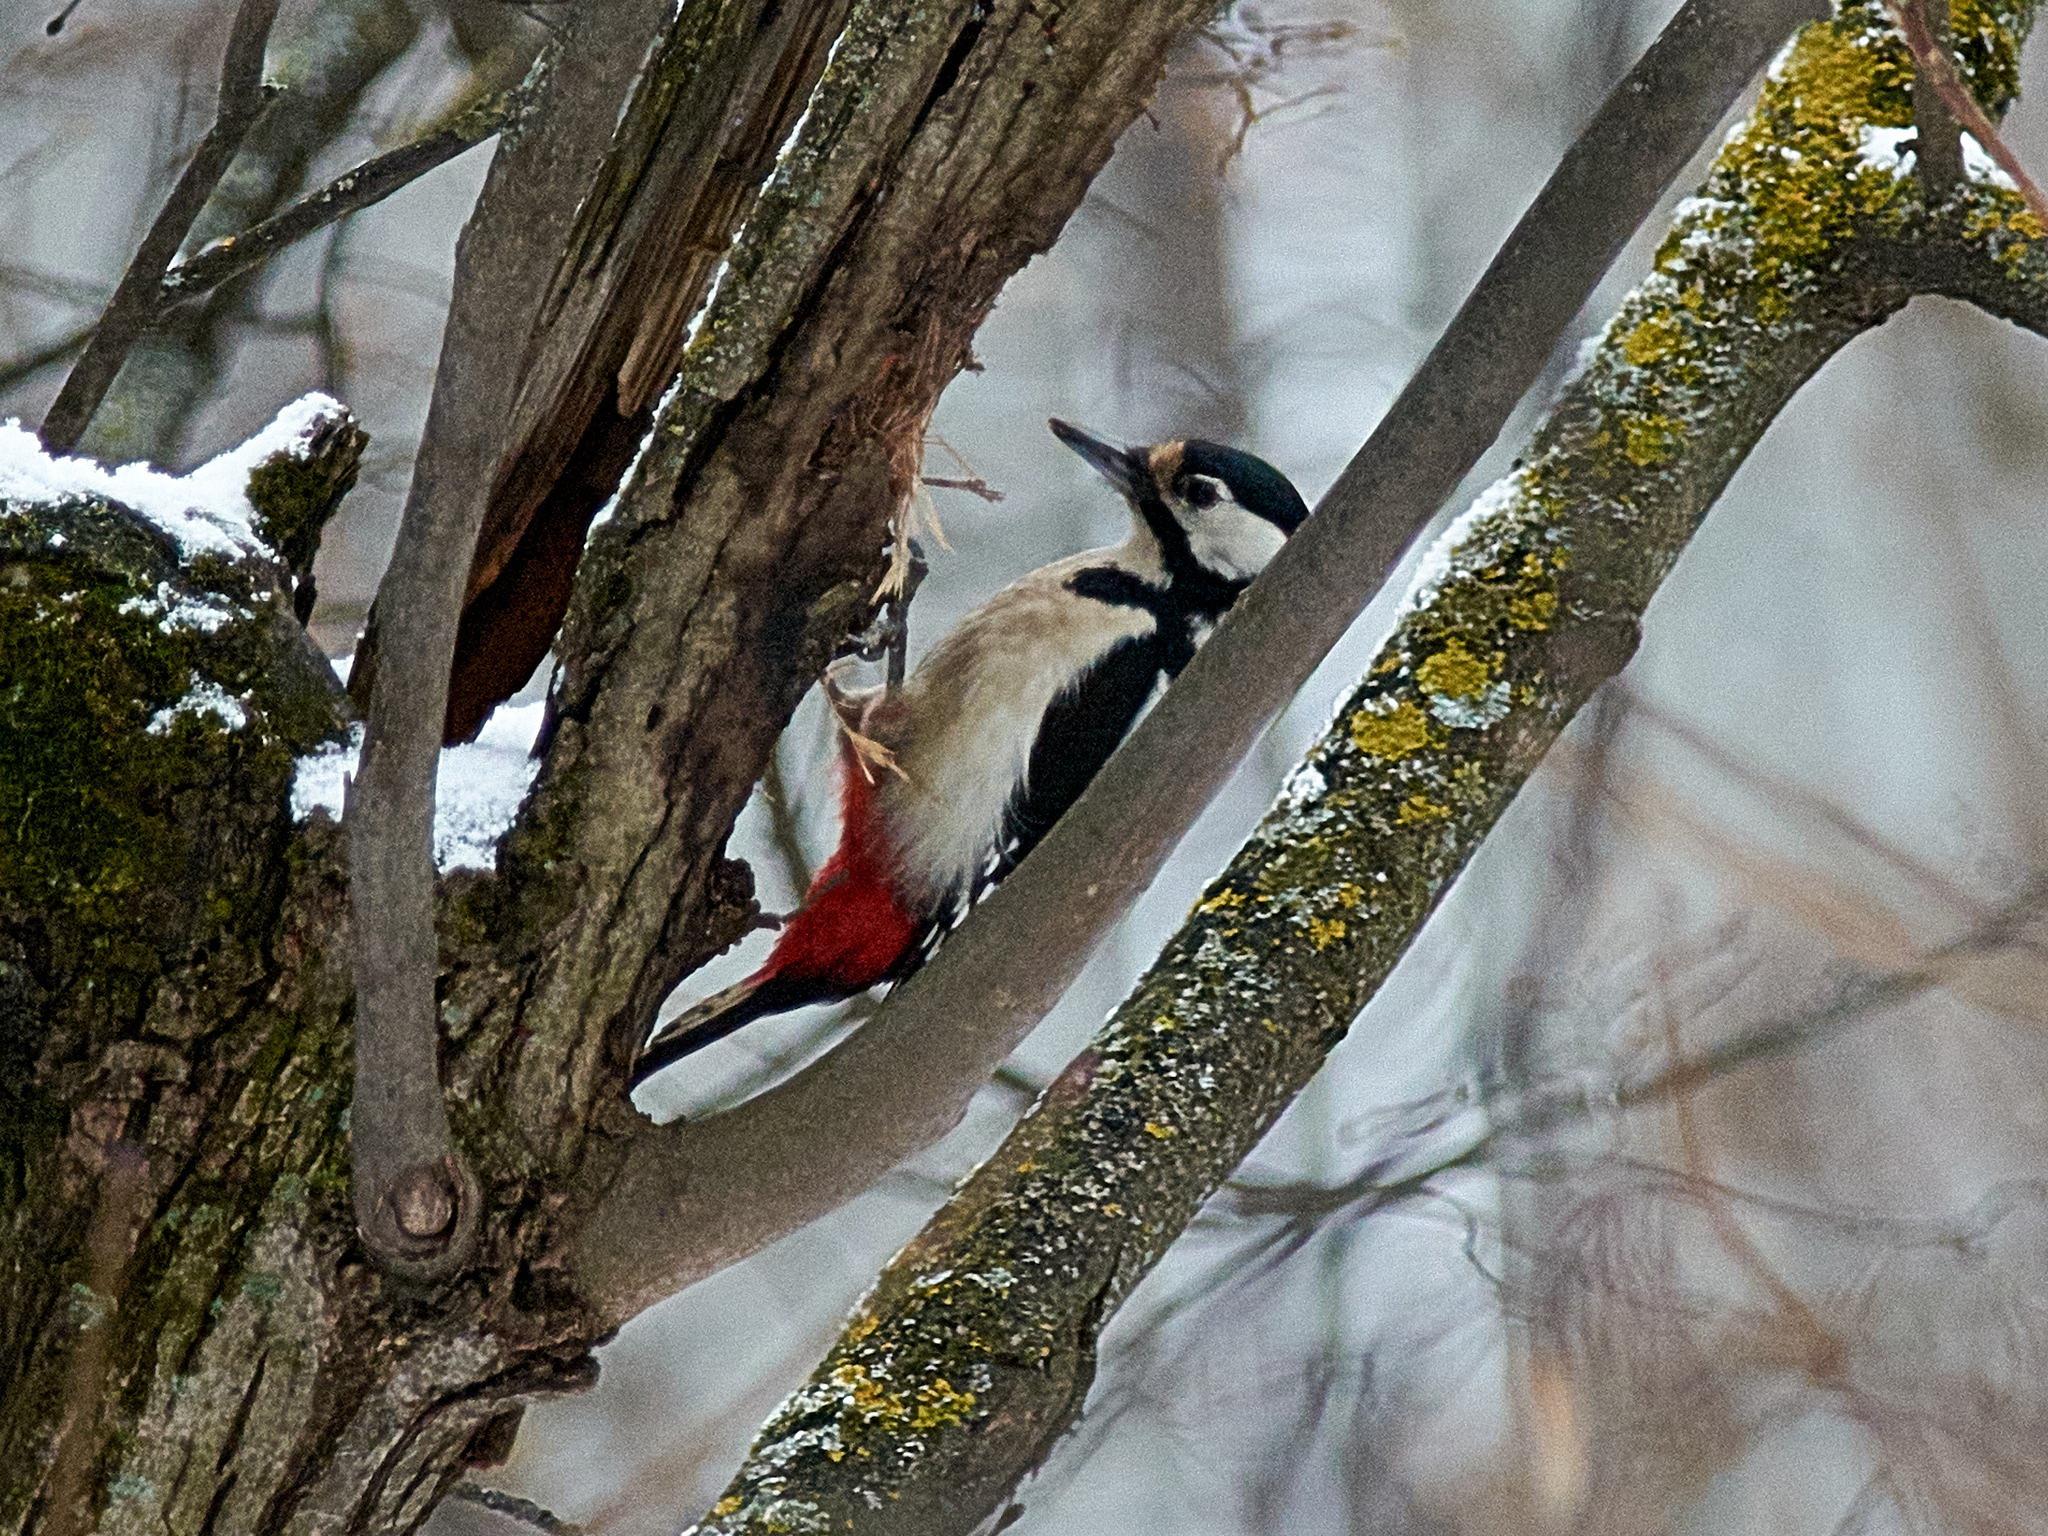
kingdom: Animalia
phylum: Chordata
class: Aves
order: Piciformes
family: Picidae
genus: Dendrocopos
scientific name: Dendrocopos major
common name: Great spotted woodpecker
